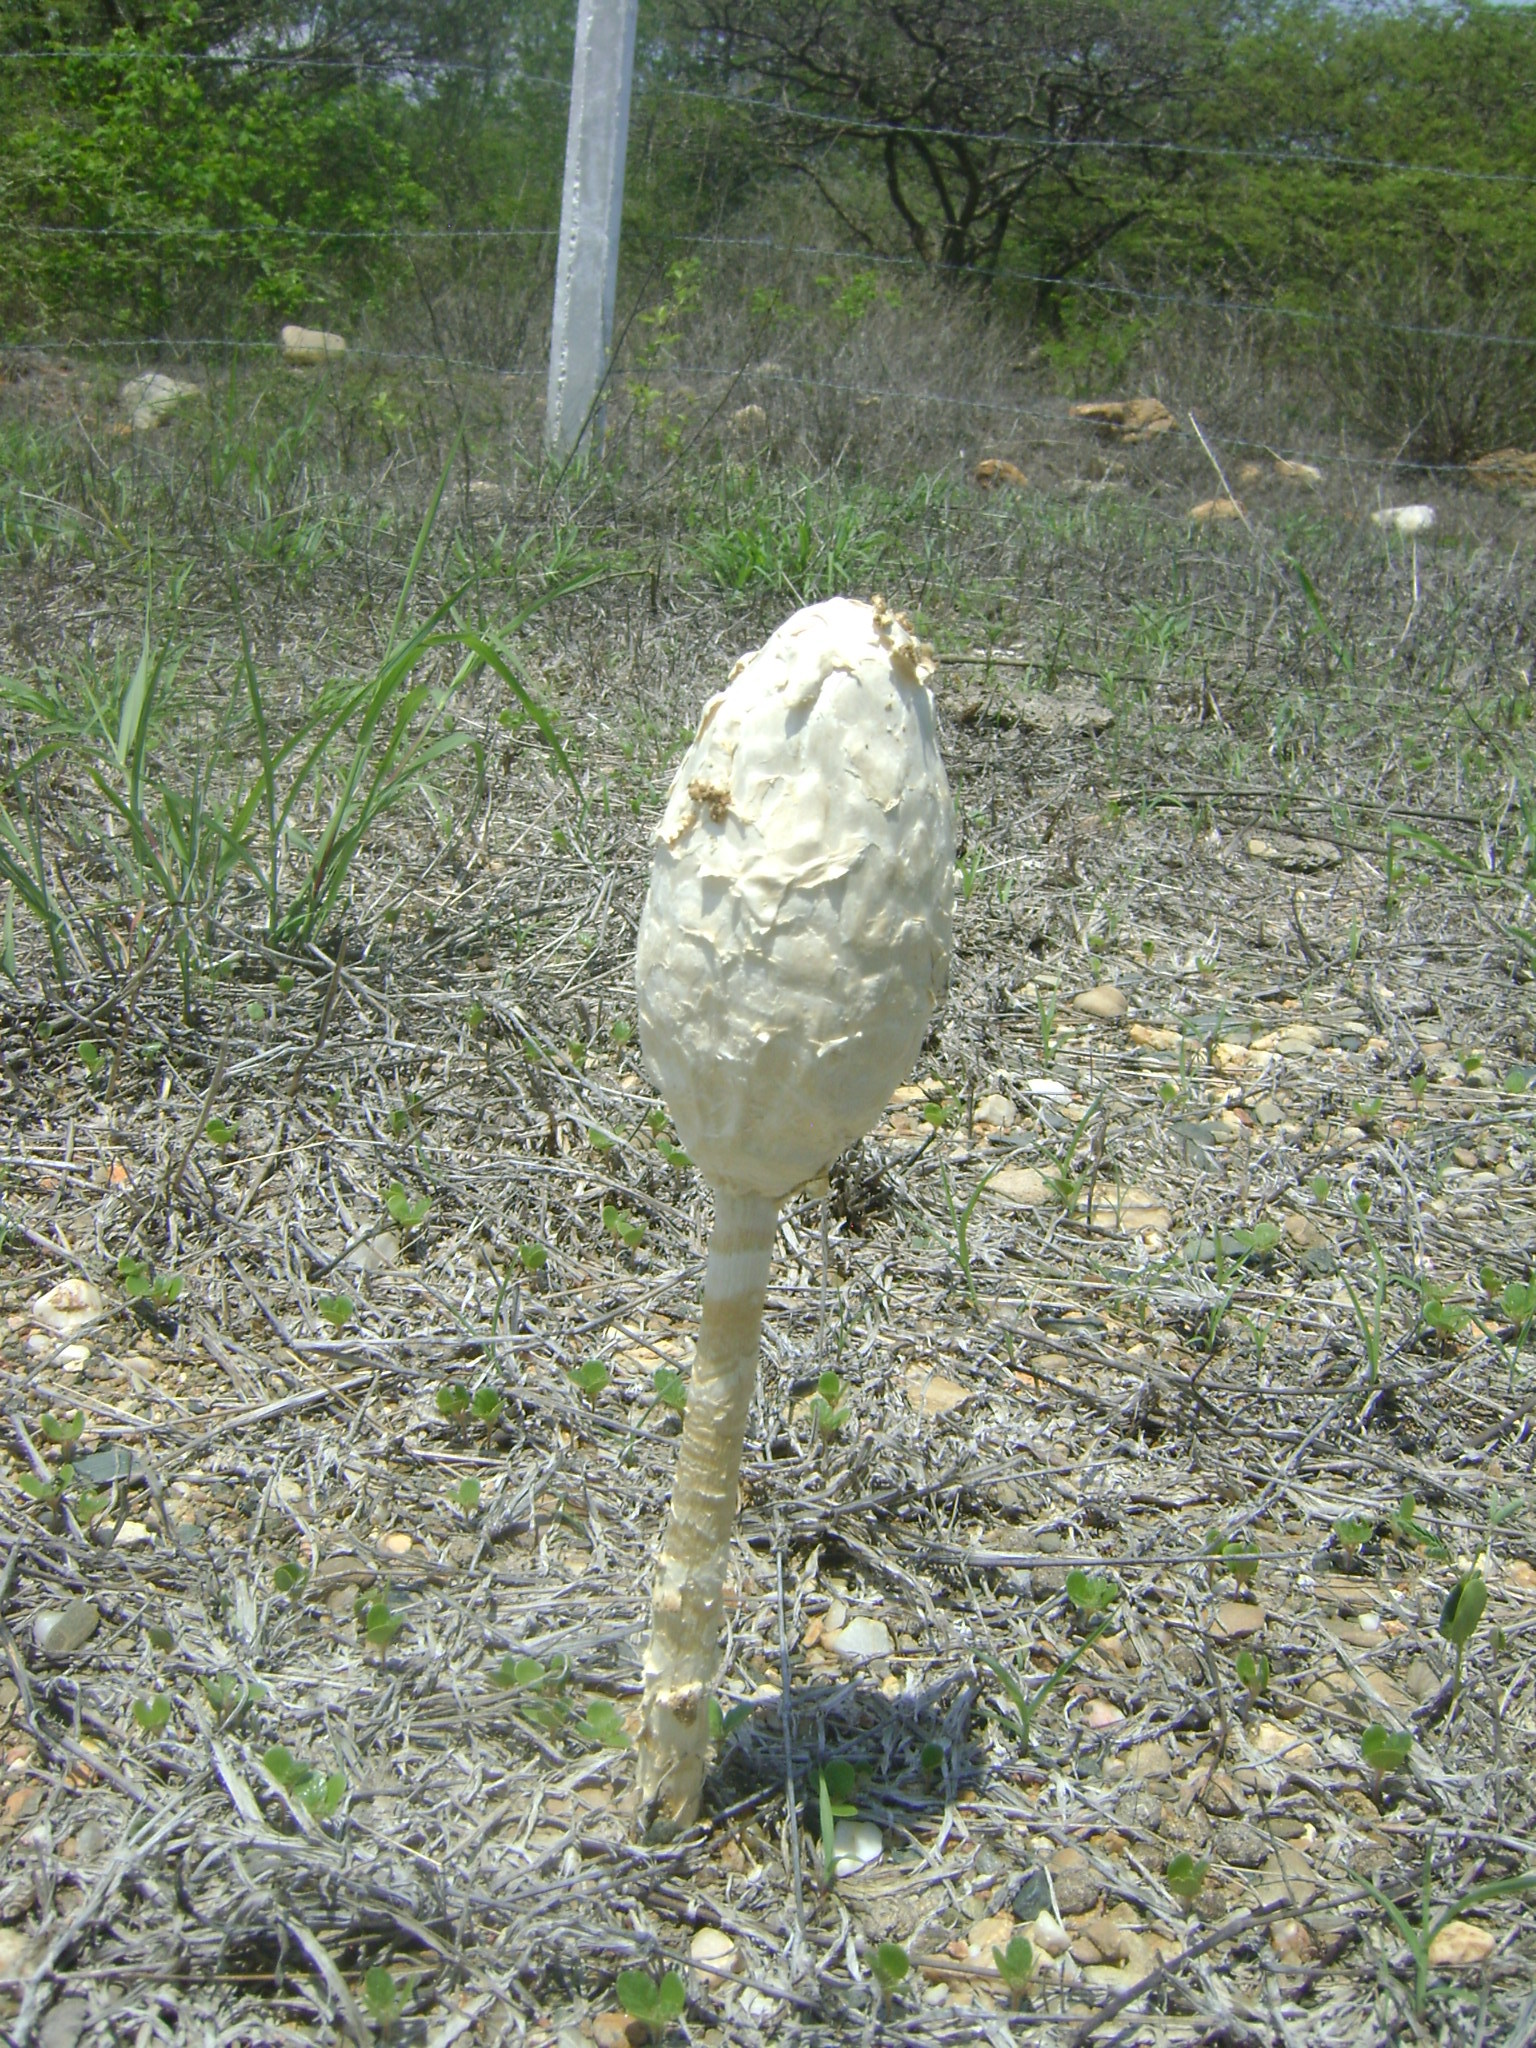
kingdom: Fungi
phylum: Basidiomycota
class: Agaricomycetes
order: Agaricales
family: Agaricaceae
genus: Podaxis
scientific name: Podaxis pistillaris
